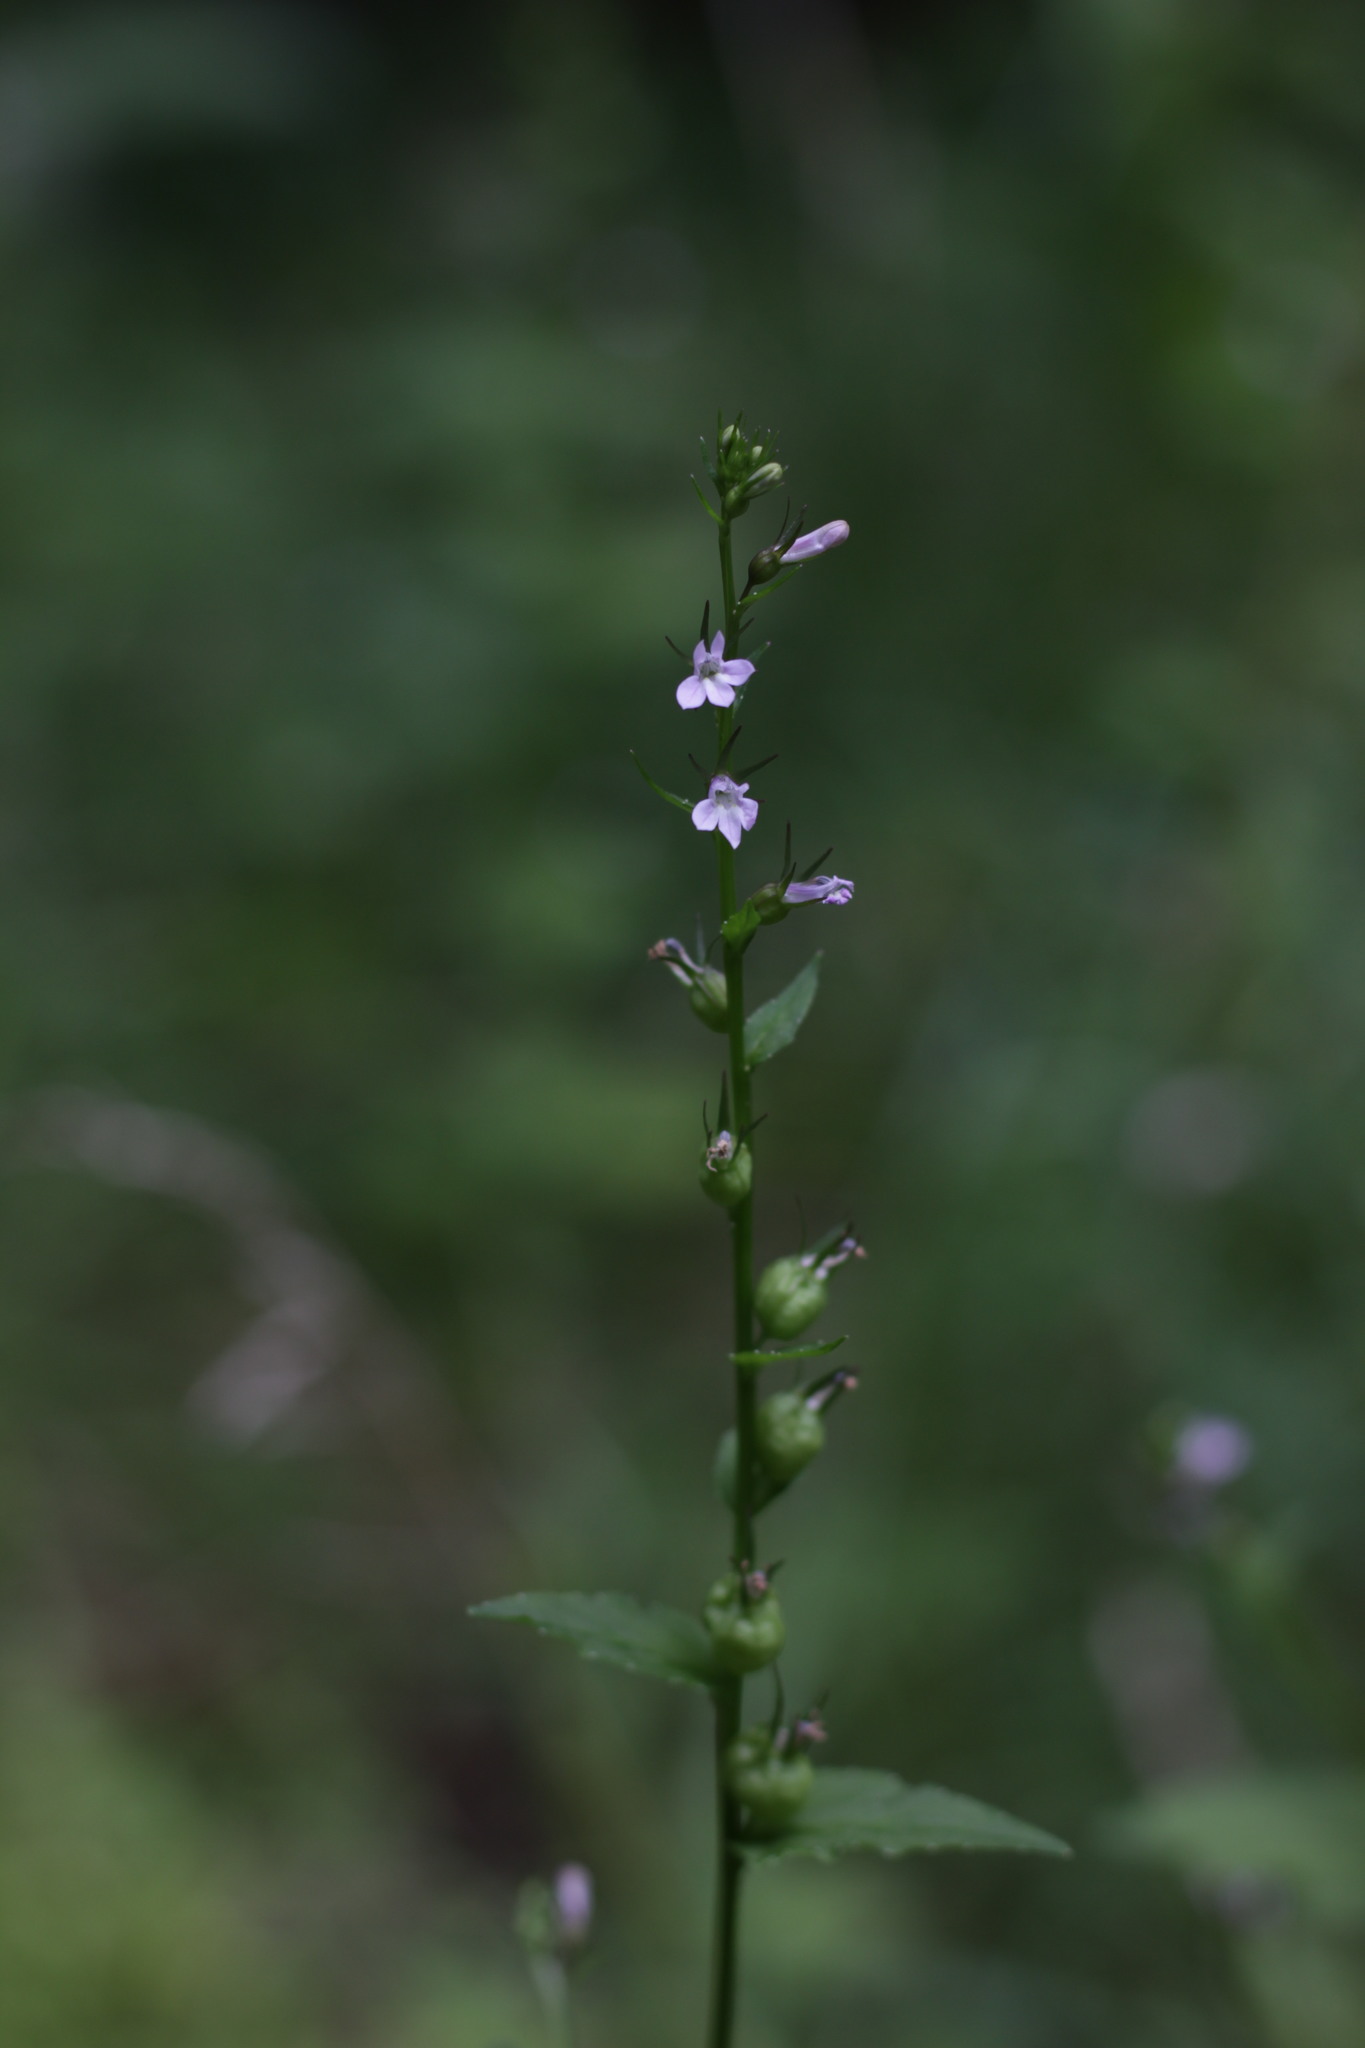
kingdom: Plantae
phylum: Tracheophyta
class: Magnoliopsida
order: Asterales
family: Campanulaceae
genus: Lobelia
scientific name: Lobelia inflata
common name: Indian tobacco
